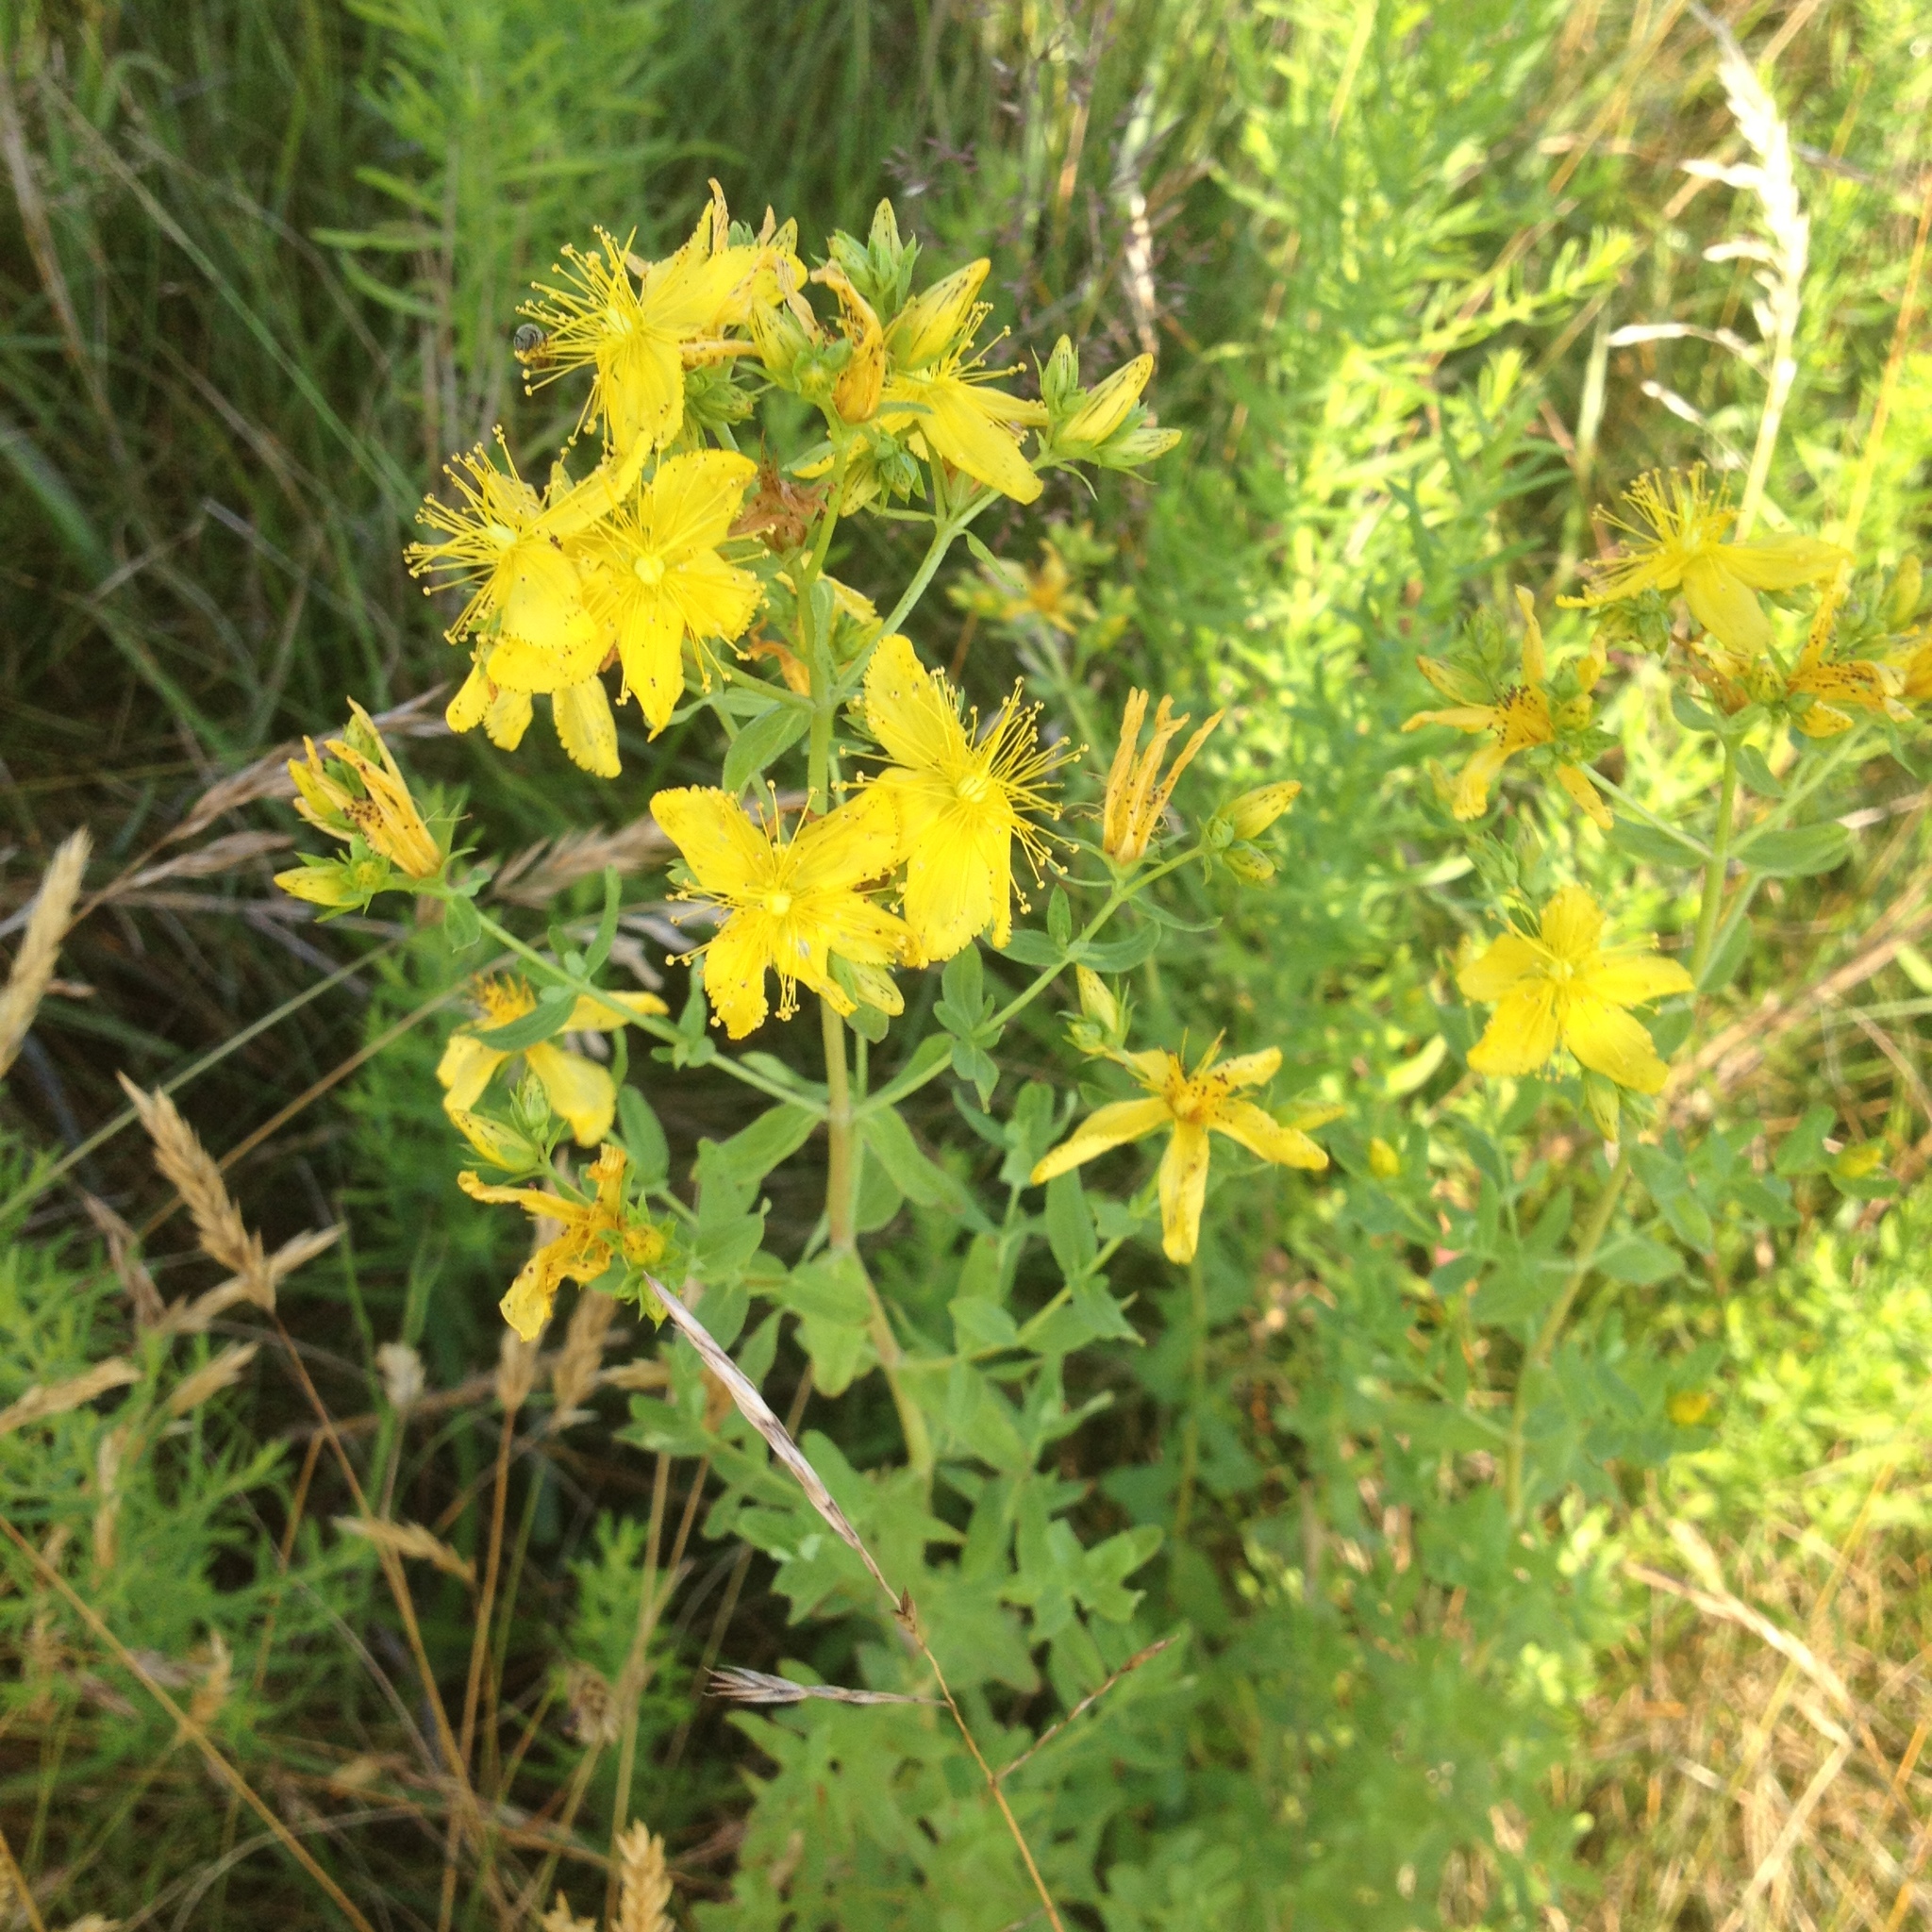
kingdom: Plantae
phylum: Tracheophyta
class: Magnoliopsida
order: Malpighiales
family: Hypericaceae
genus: Hypericum
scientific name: Hypericum perforatum
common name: Common st. johnswort
